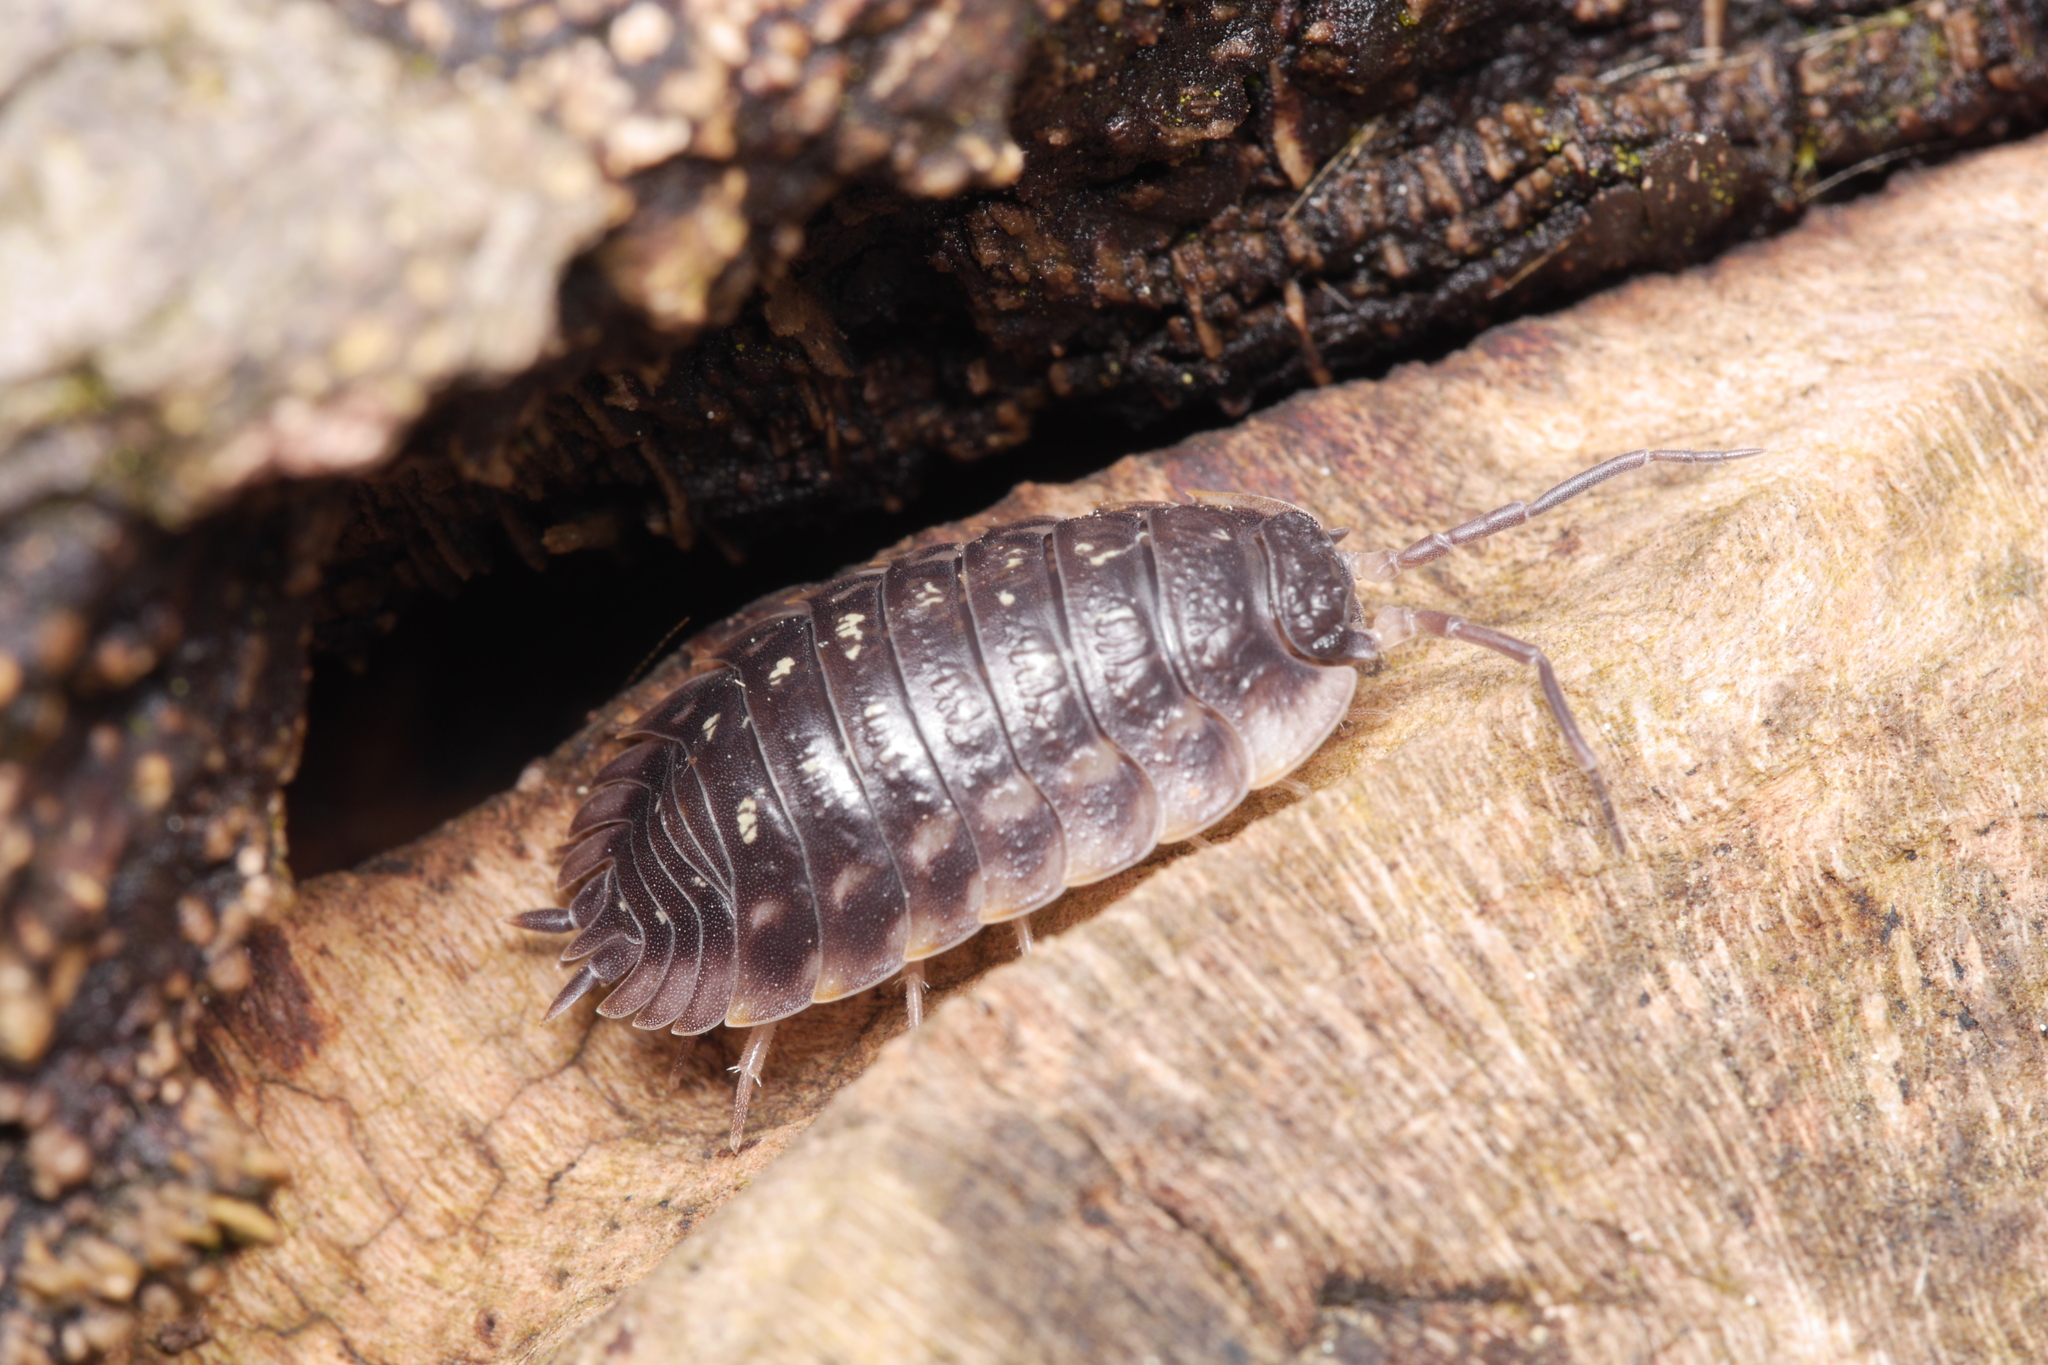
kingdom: Animalia
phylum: Arthropoda
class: Malacostraca
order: Isopoda
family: Oniscidae
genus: Oniscus
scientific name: Oniscus asellus
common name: Common shiny woodlouse
